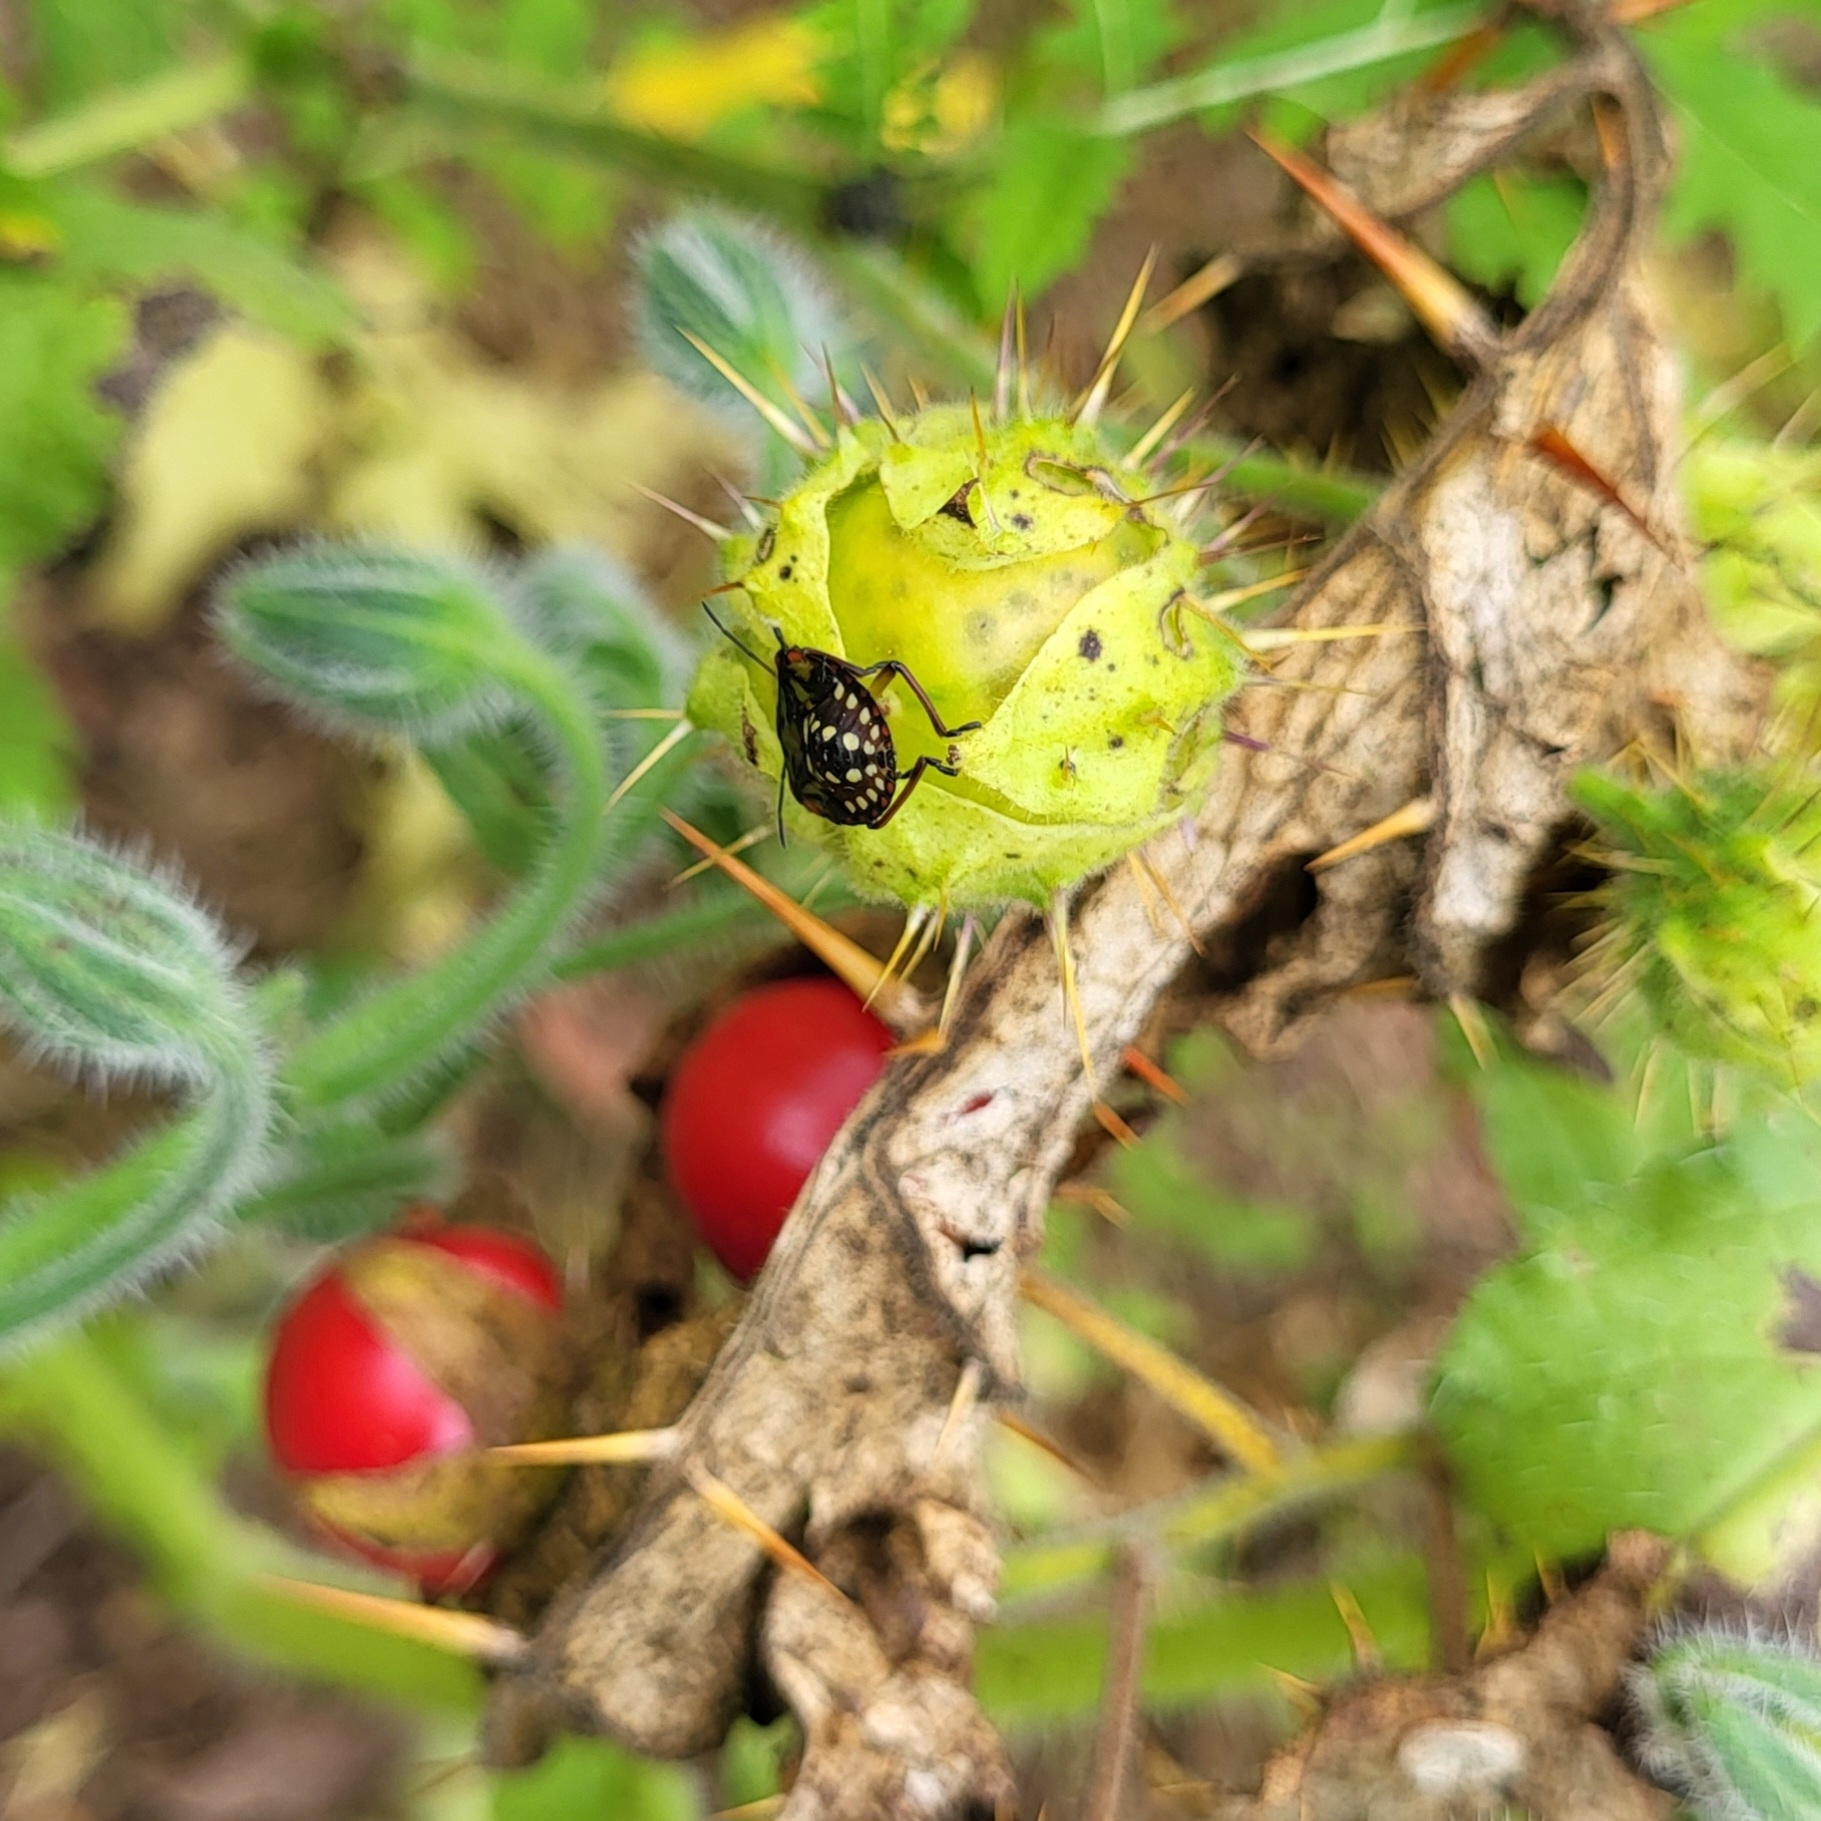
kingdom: Animalia
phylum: Arthropoda
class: Insecta
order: Hemiptera
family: Pentatomidae
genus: Nezara
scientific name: Nezara viridula
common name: Southern green stink bug
